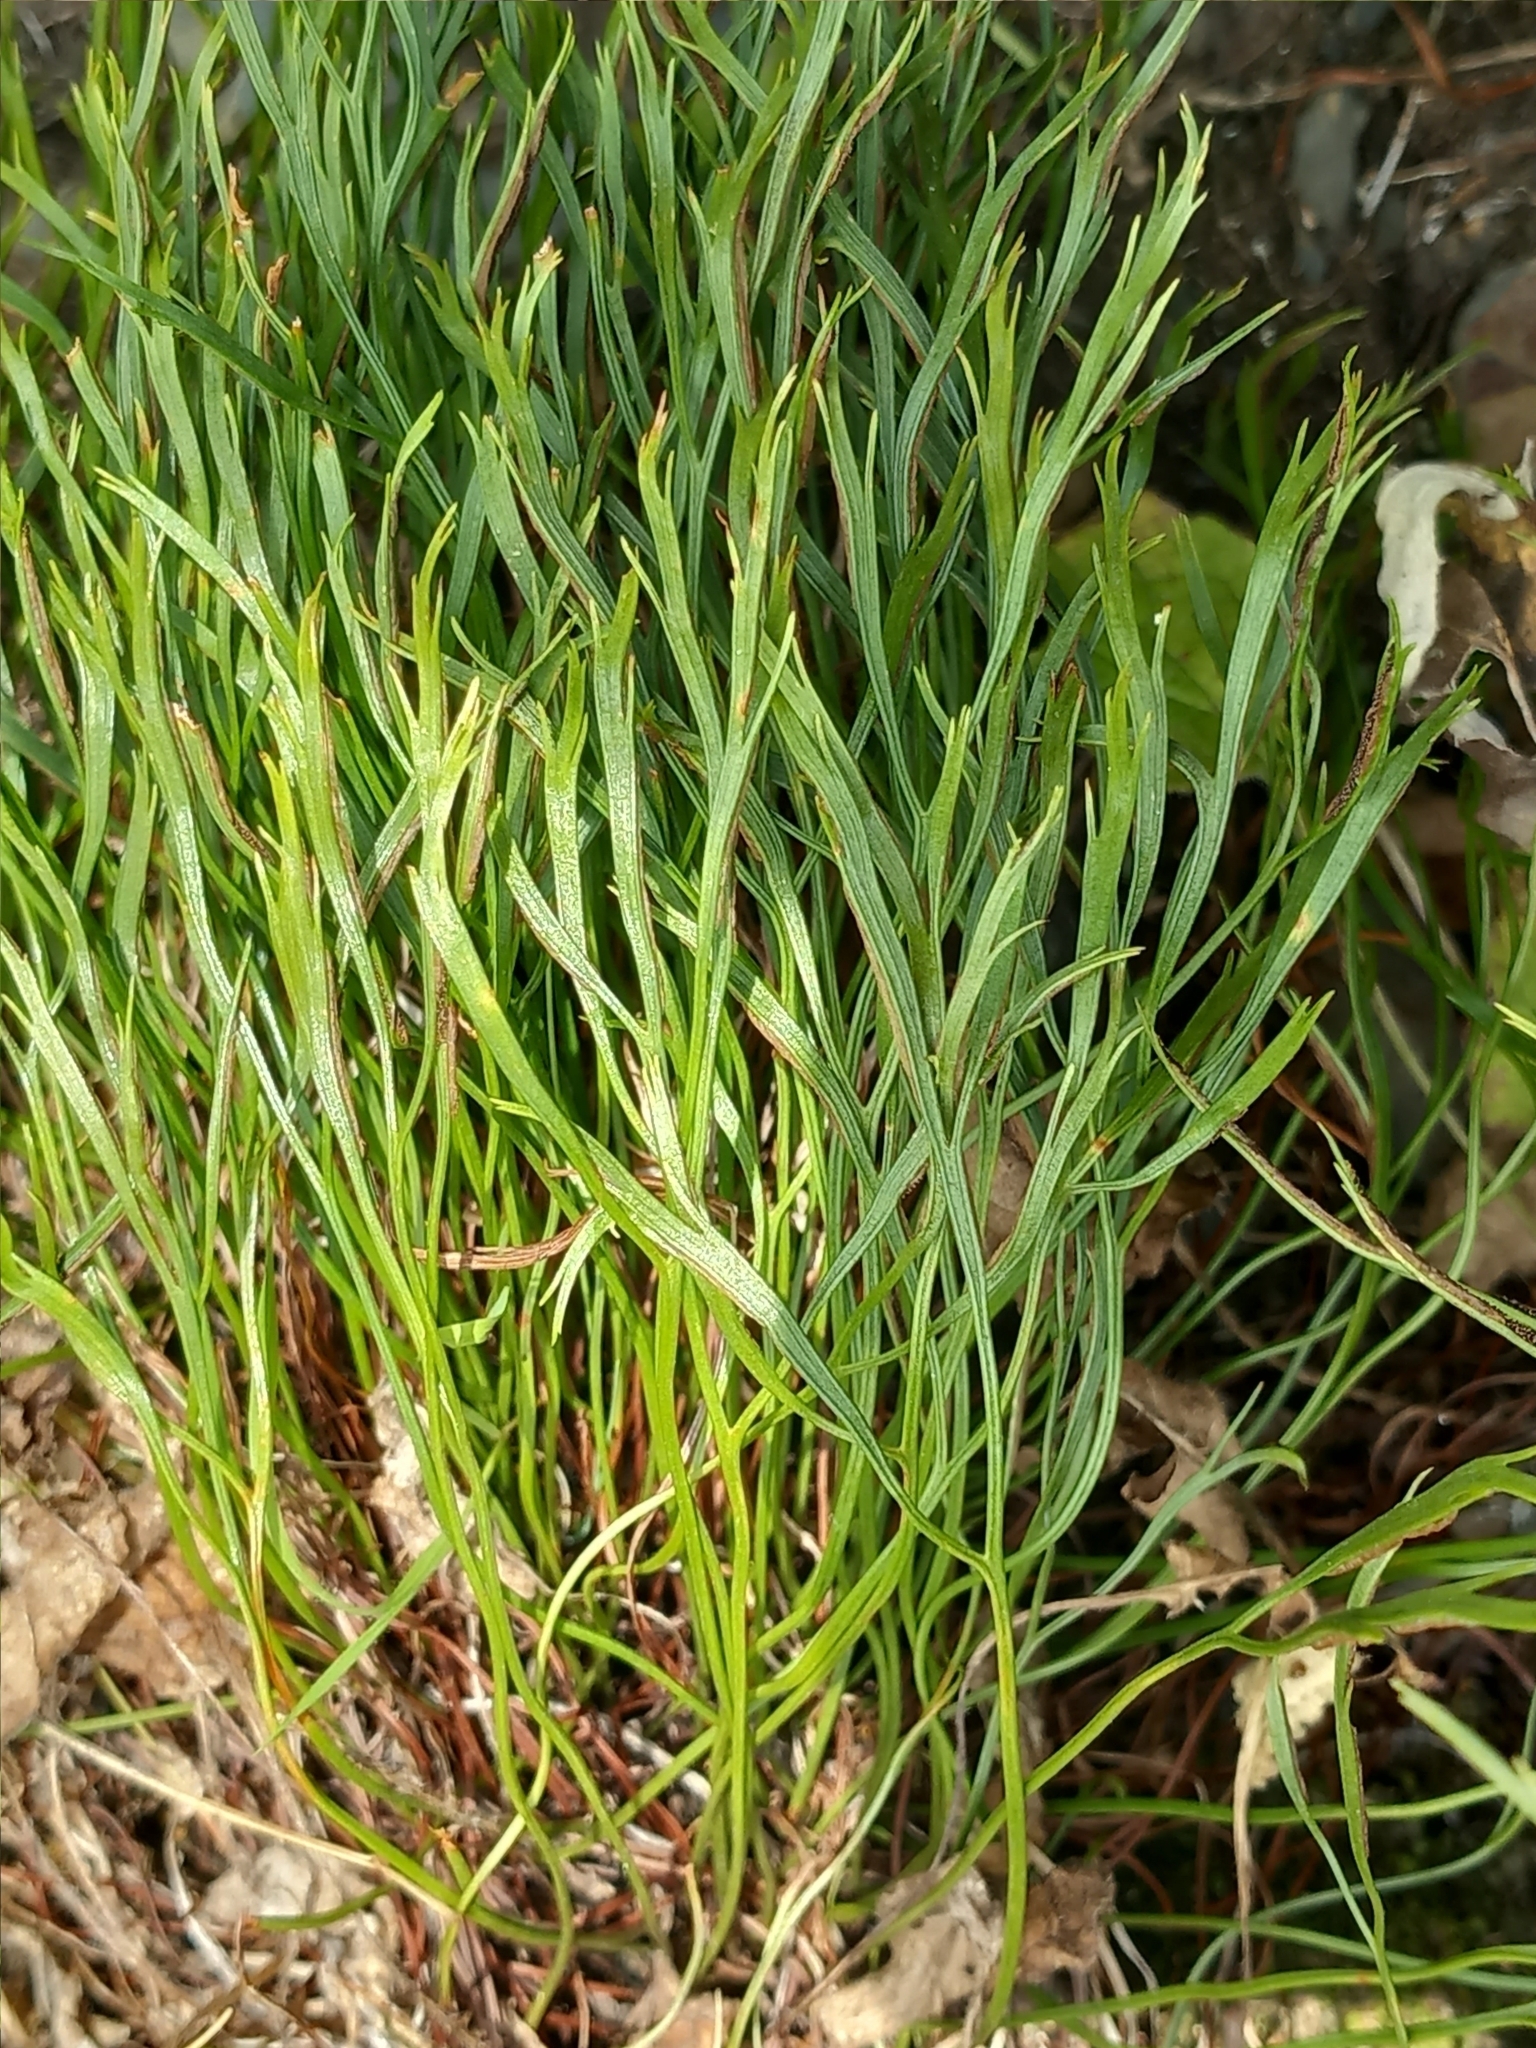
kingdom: Plantae
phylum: Tracheophyta
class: Polypodiopsida
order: Polypodiales
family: Aspleniaceae
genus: Asplenium
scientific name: Asplenium septentrionale
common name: Forked spleenwort
